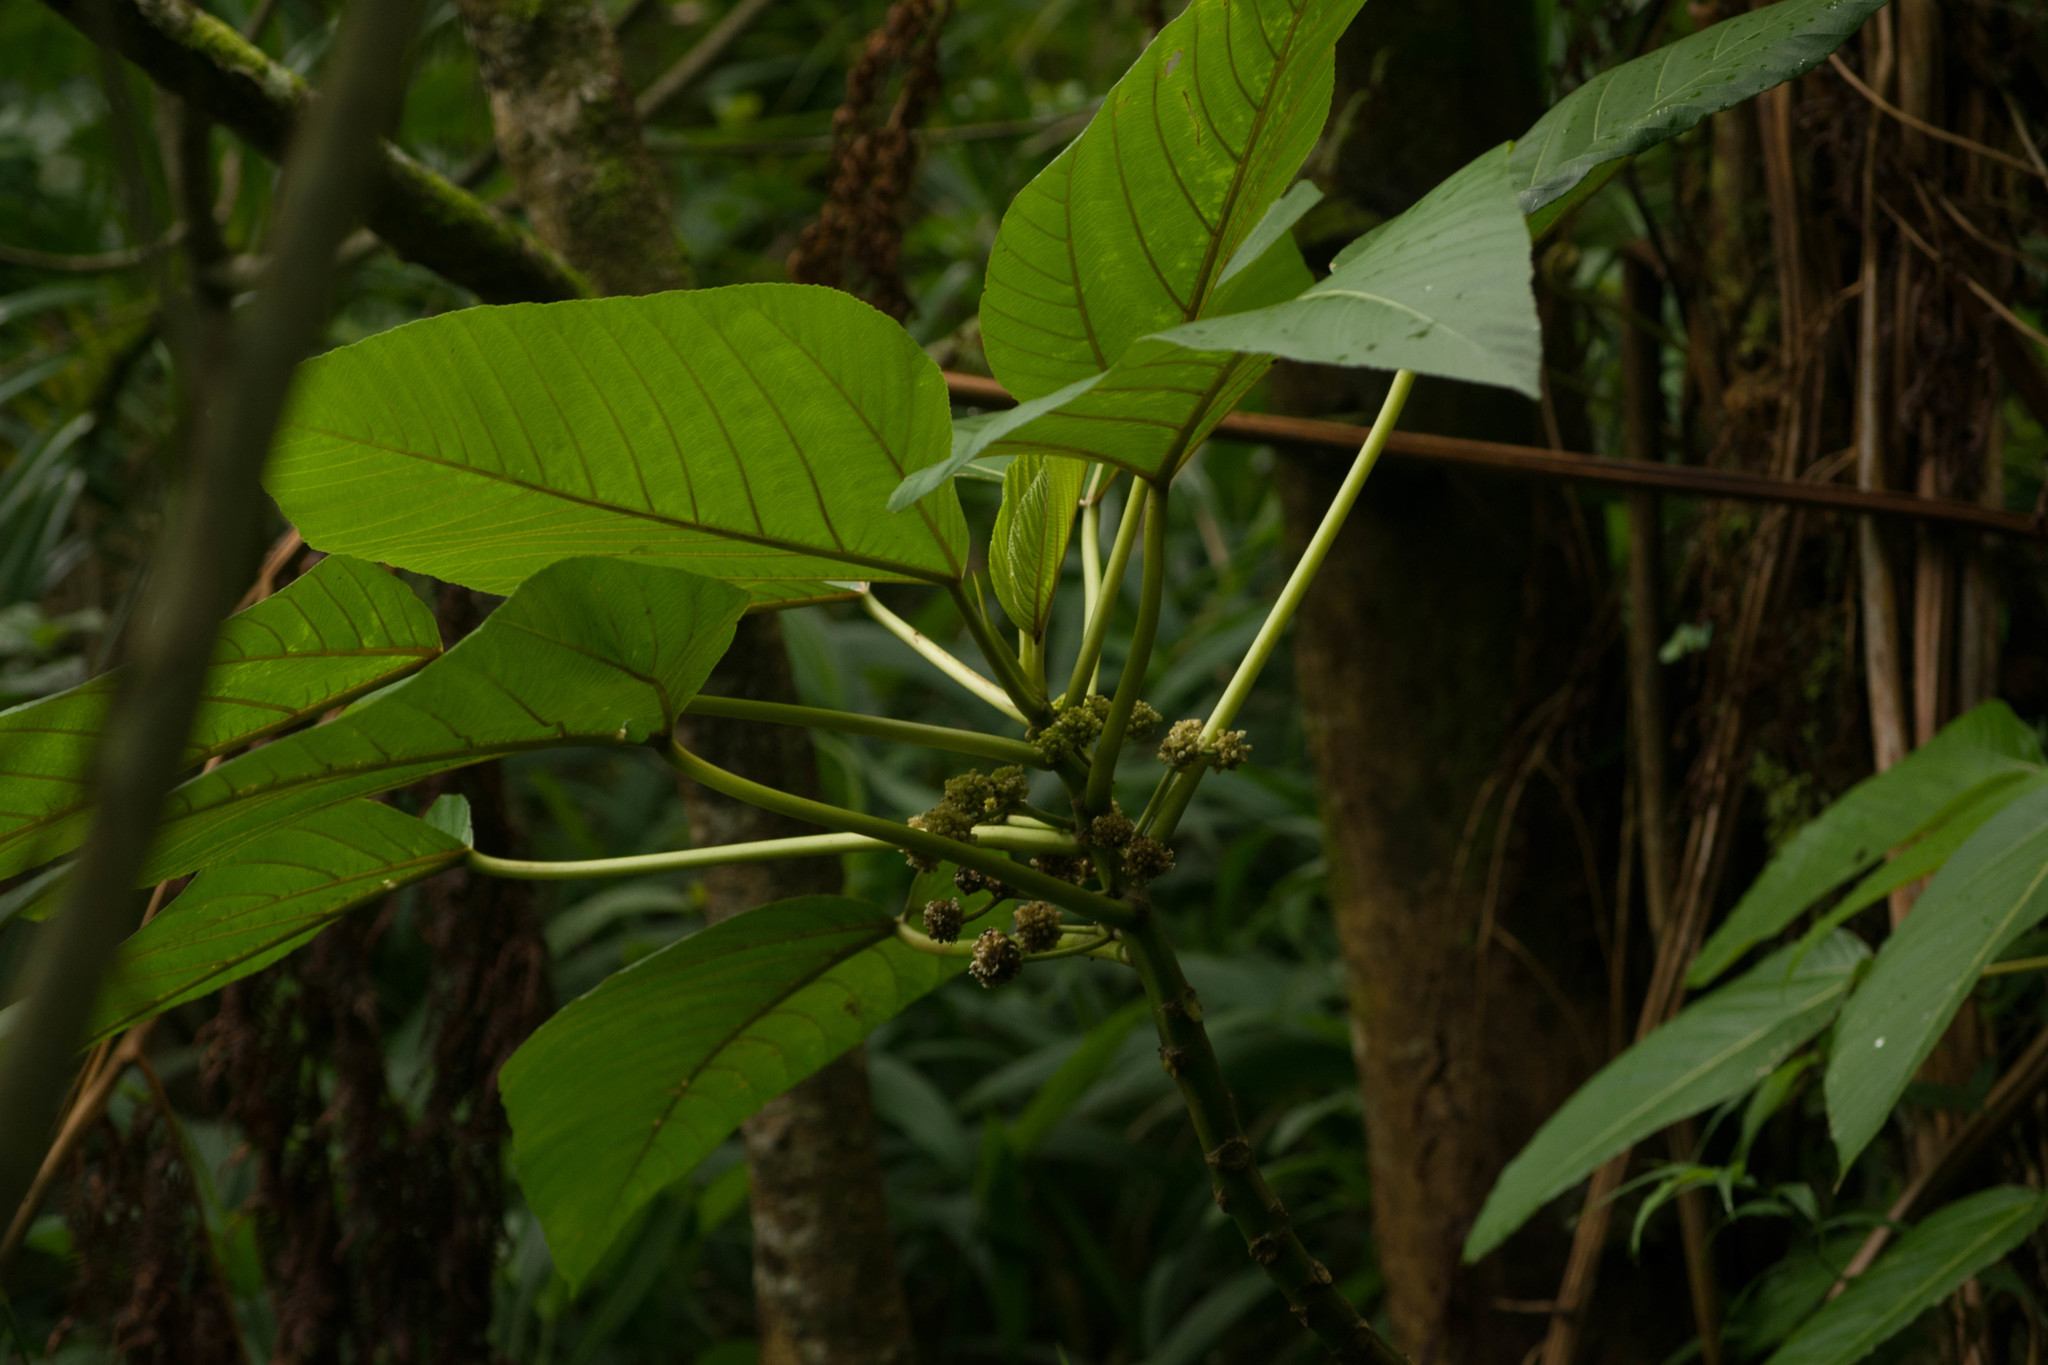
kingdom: Plantae
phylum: Tracheophyta
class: Magnoliopsida
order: Rosales
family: Urticaceae
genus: Touchardia
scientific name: Touchardia latifolia
